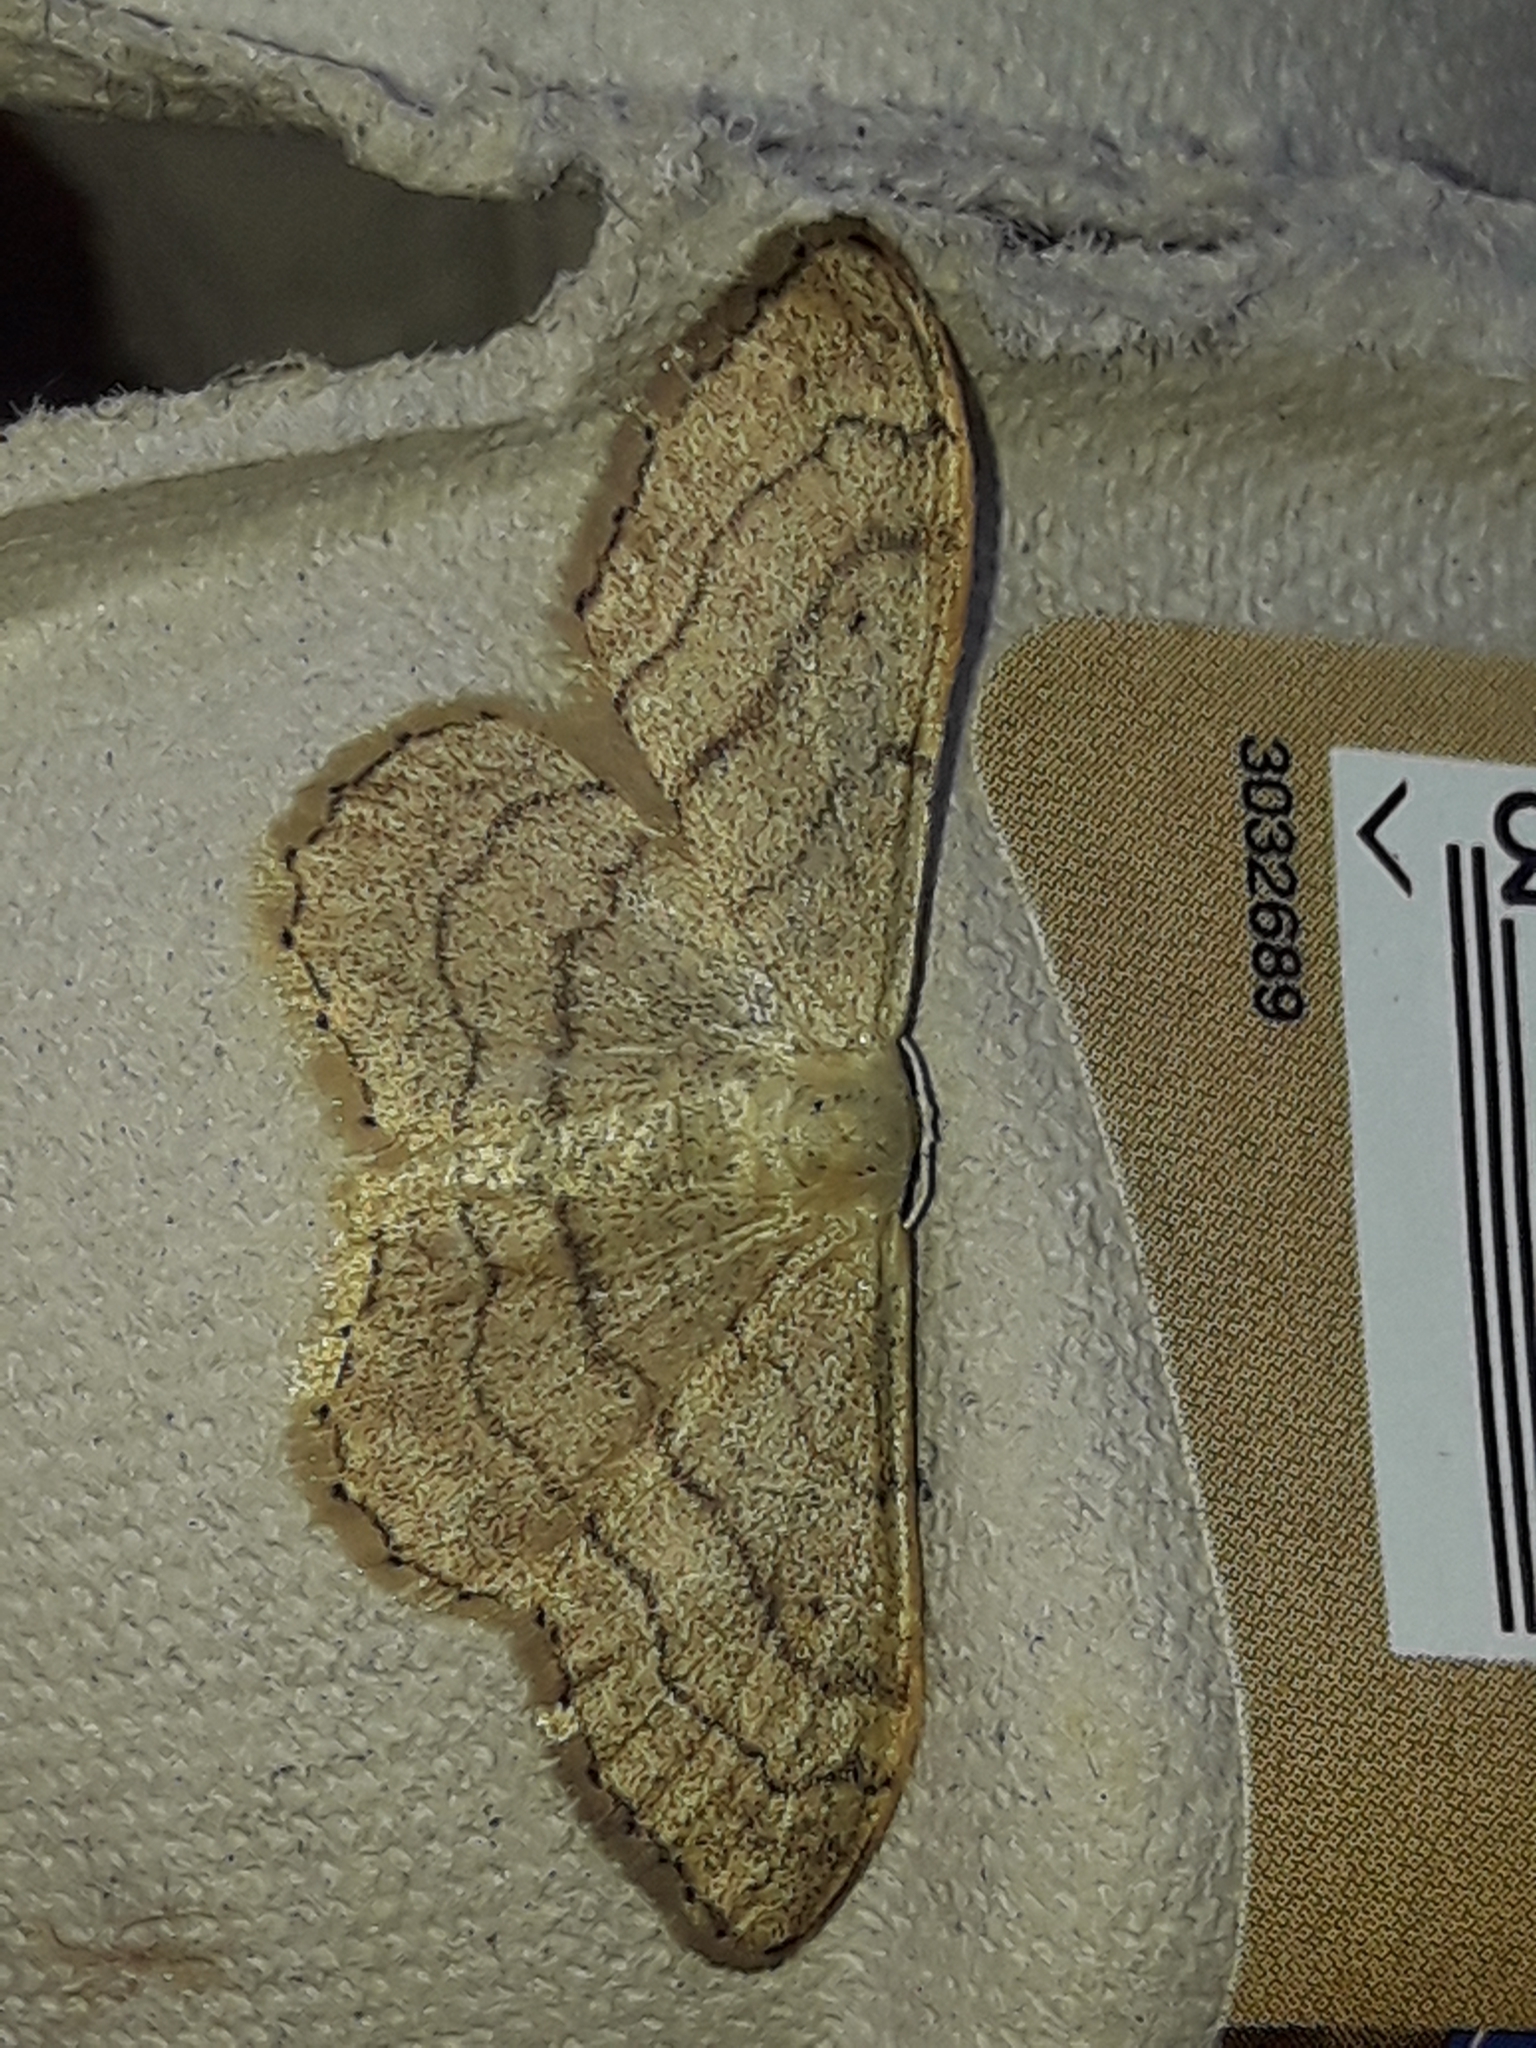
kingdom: Animalia
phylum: Arthropoda
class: Insecta
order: Lepidoptera
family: Geometridae
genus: Idaea
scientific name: Idaea aversata
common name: Riband wave
